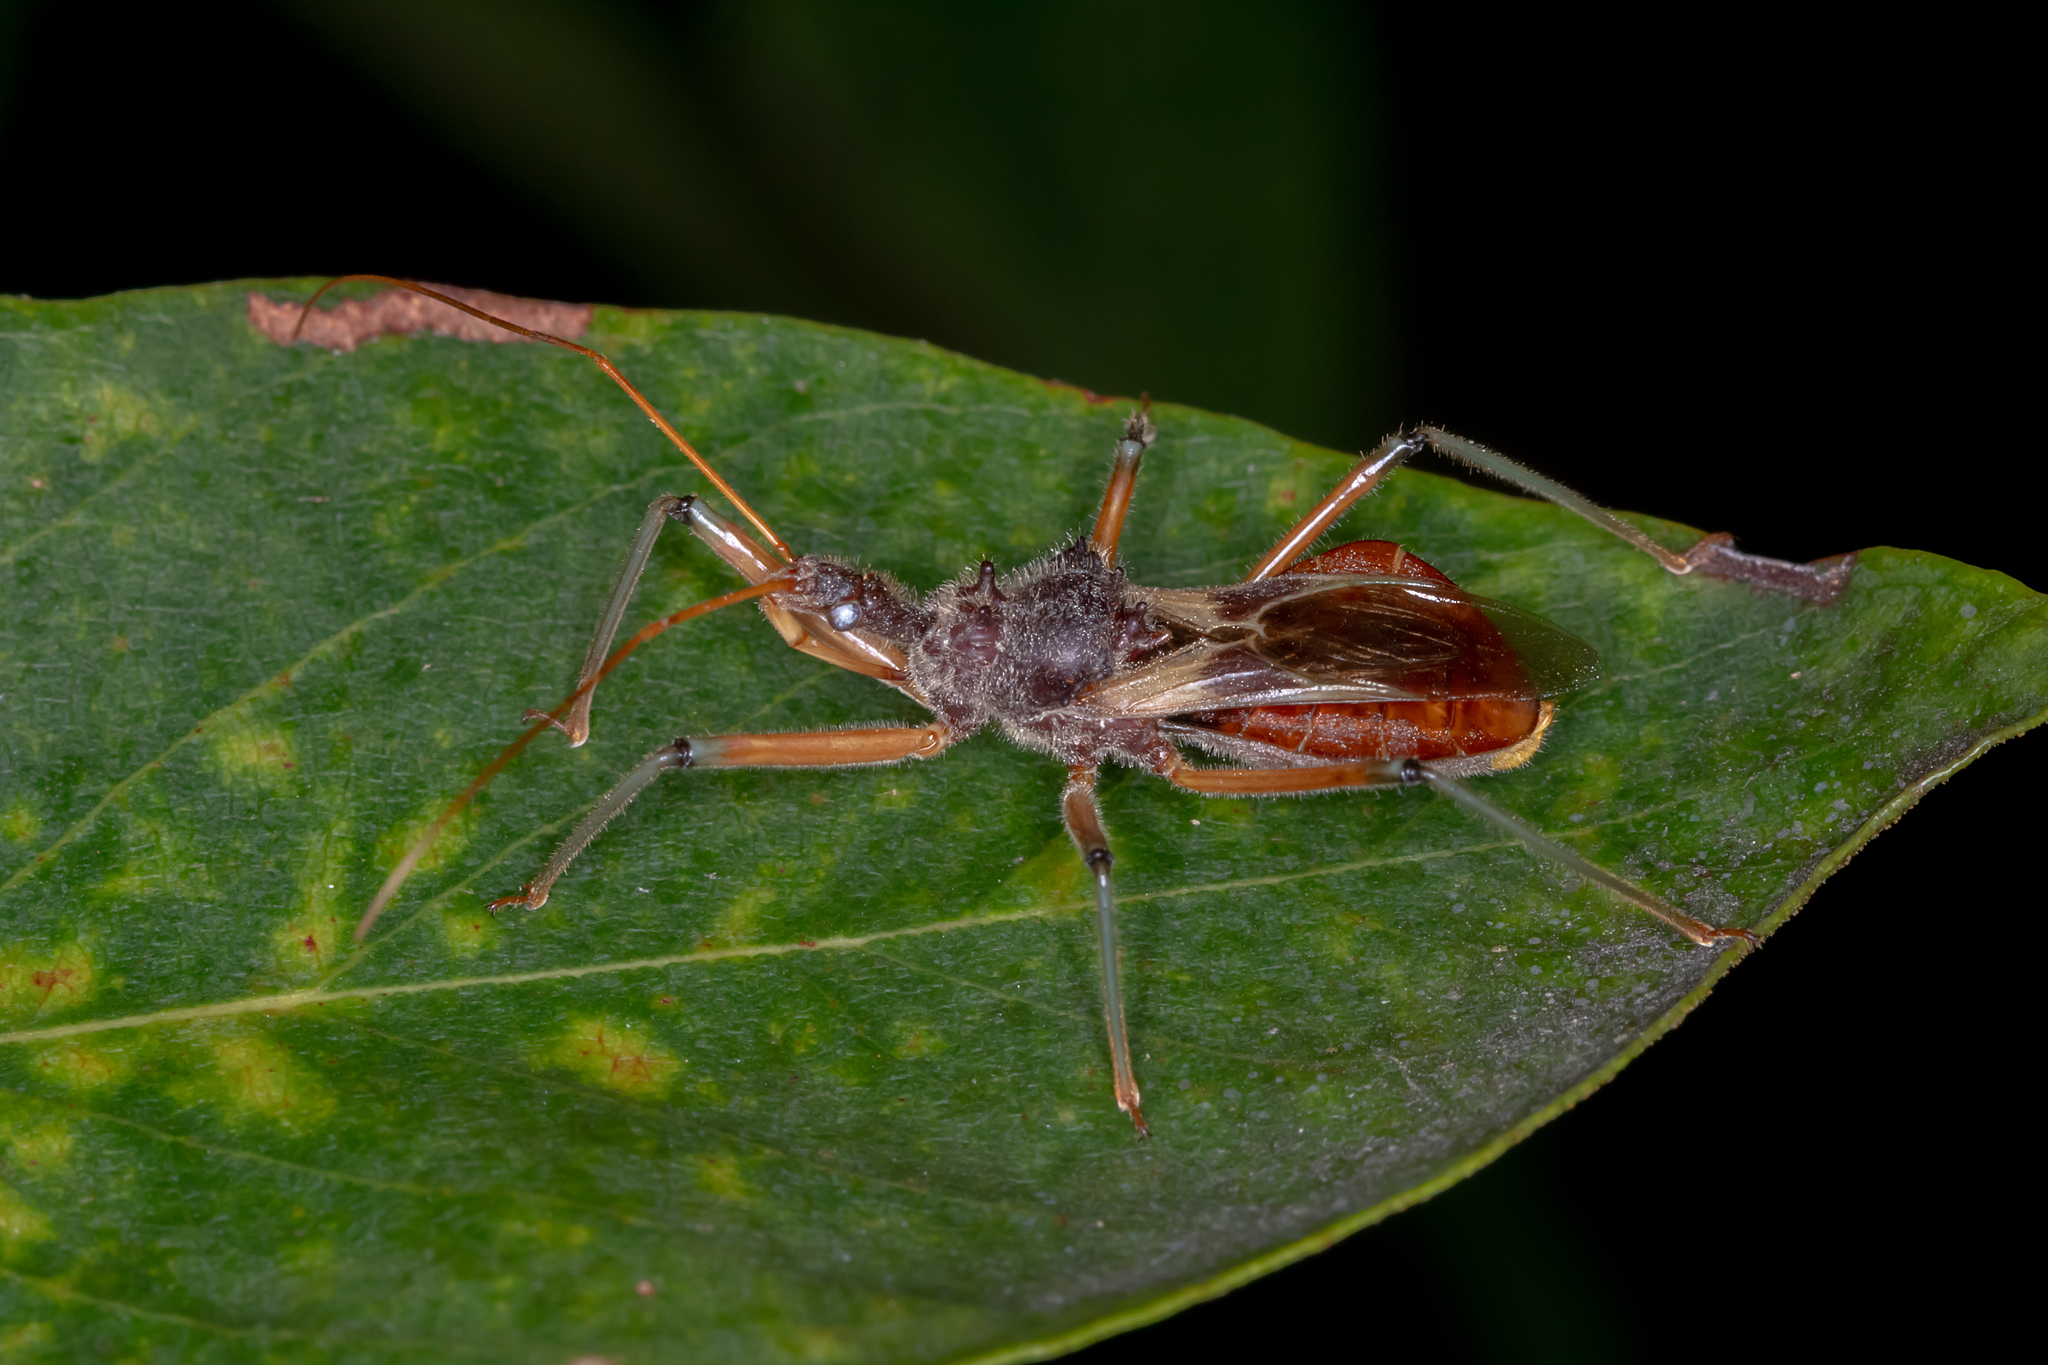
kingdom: Animalia
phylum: Arthropoda
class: Insecta
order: Hemiptera
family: Reduviidae
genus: Pristhesancus
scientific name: Pristhesancus plagipennis
